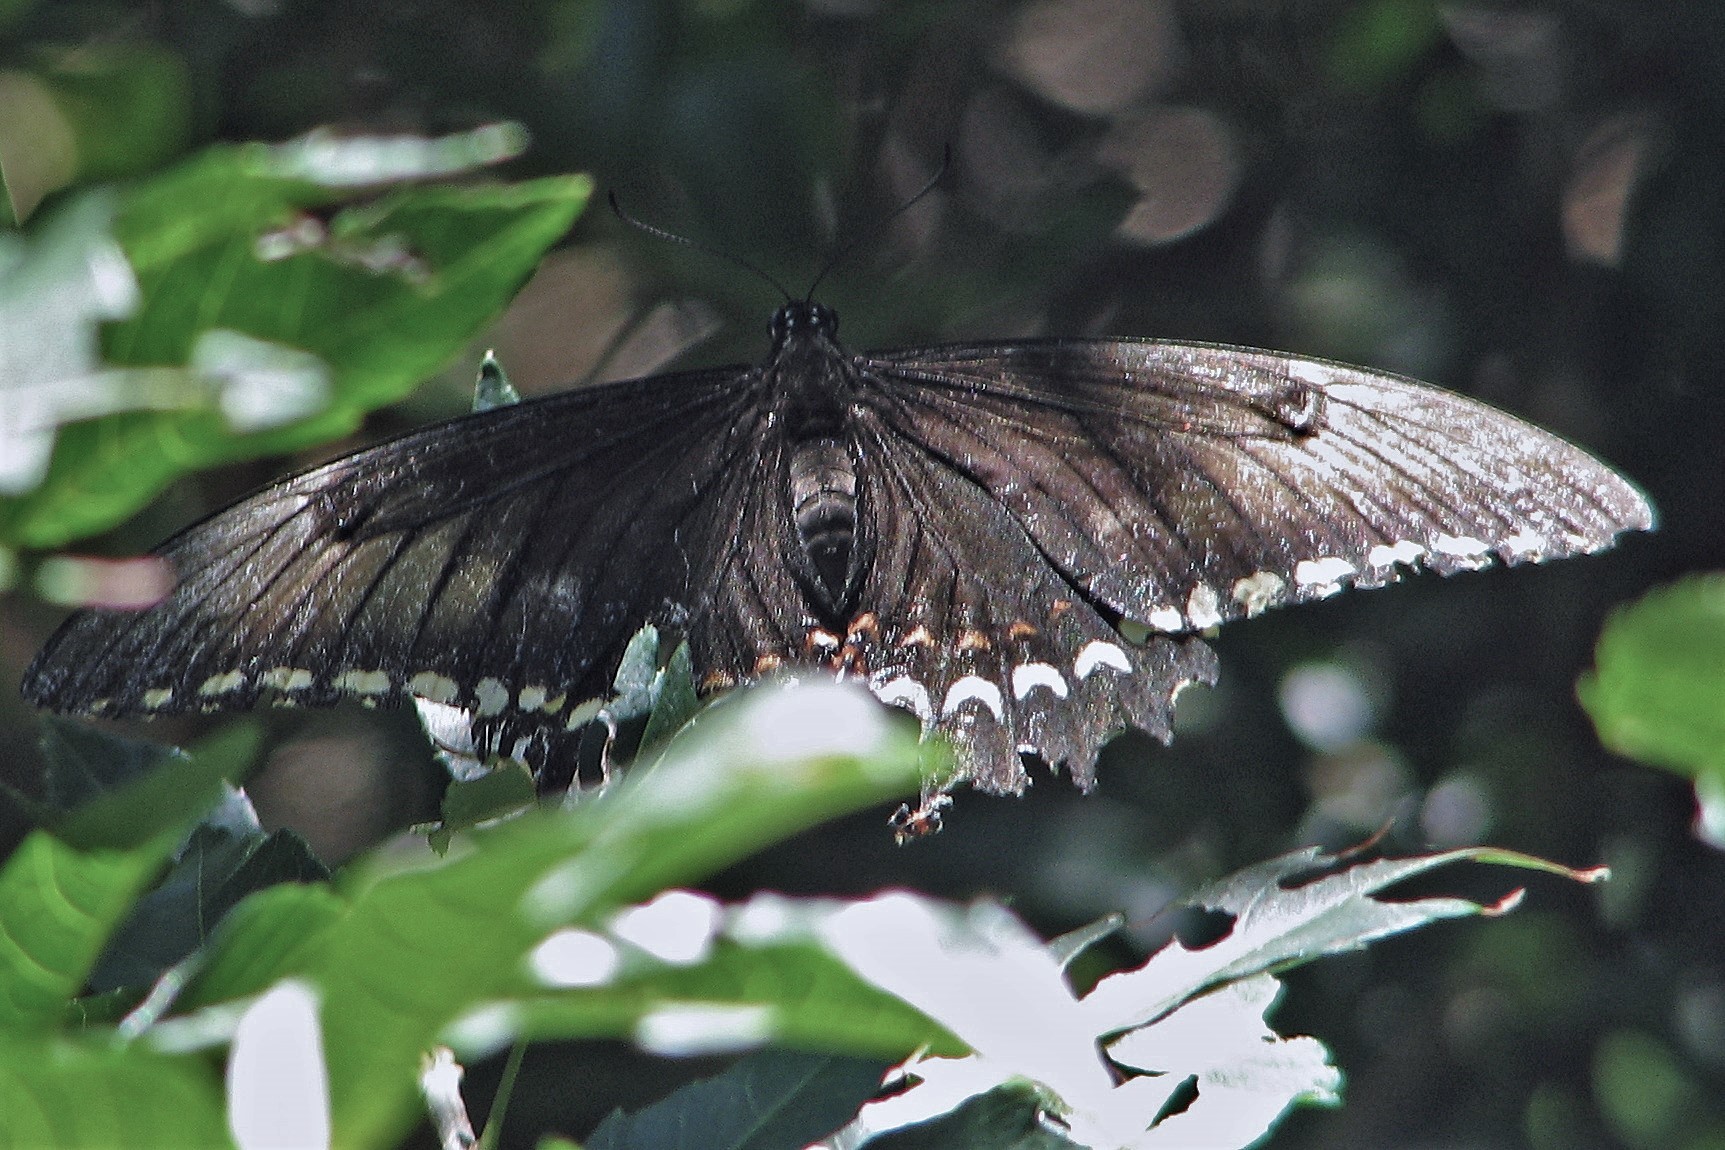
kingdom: Animalia
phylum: Arthropoda
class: Insecta
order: Lepidoptera
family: Papilionidae
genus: Papilio
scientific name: Papilio astyalus
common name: Astyalus swallowtail
